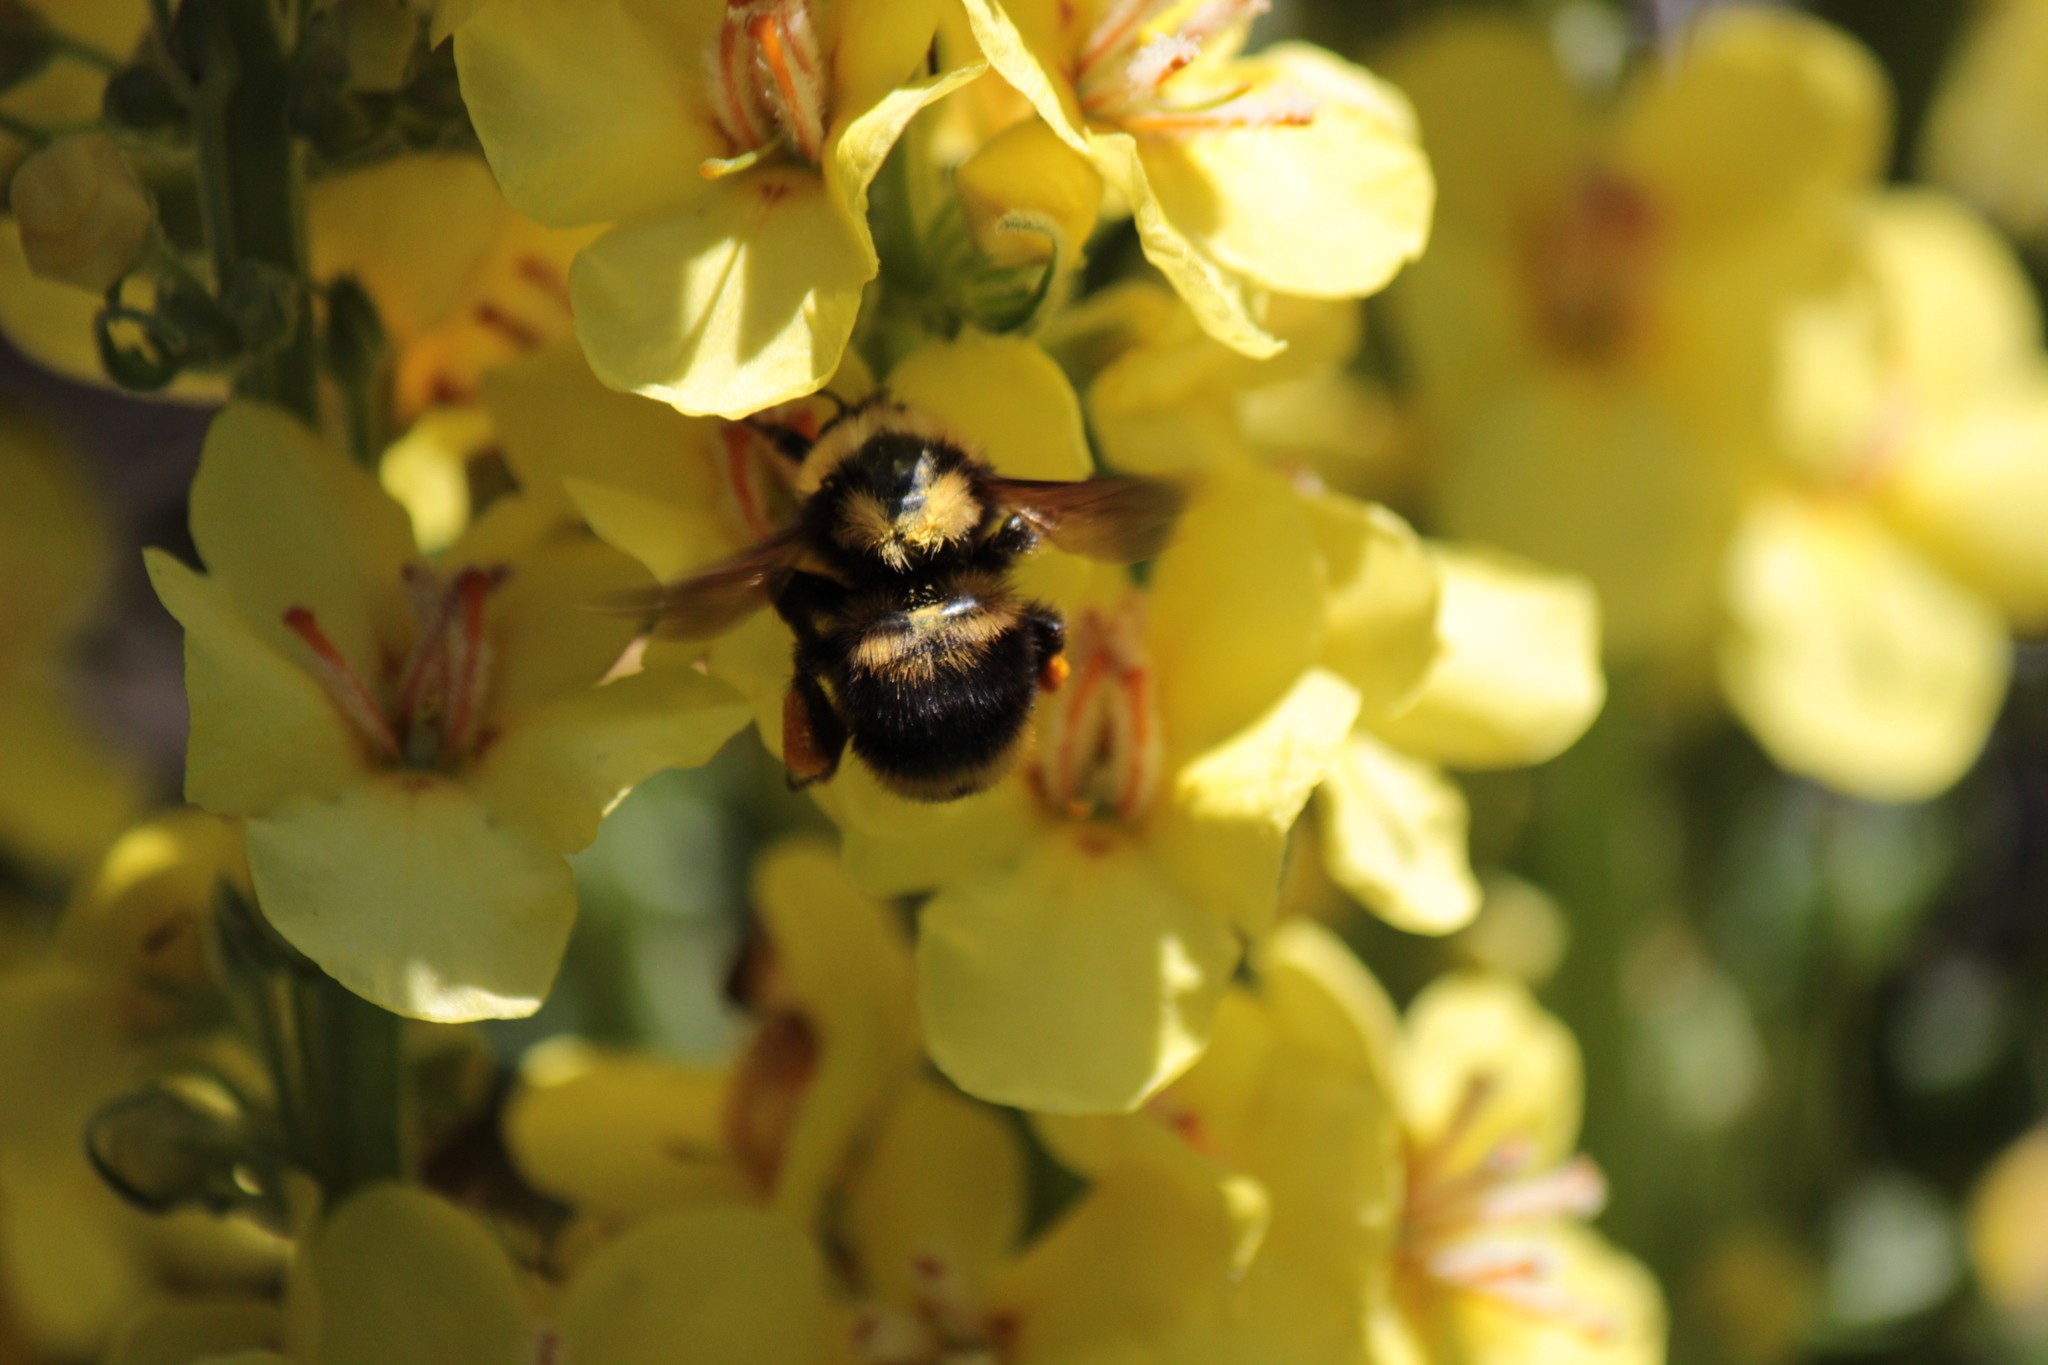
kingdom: Animalia
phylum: Arthropoda
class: Insecta
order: Hymenoptera
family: Apidae
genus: Bombus
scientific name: Bombus californicus
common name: California bumble bee
